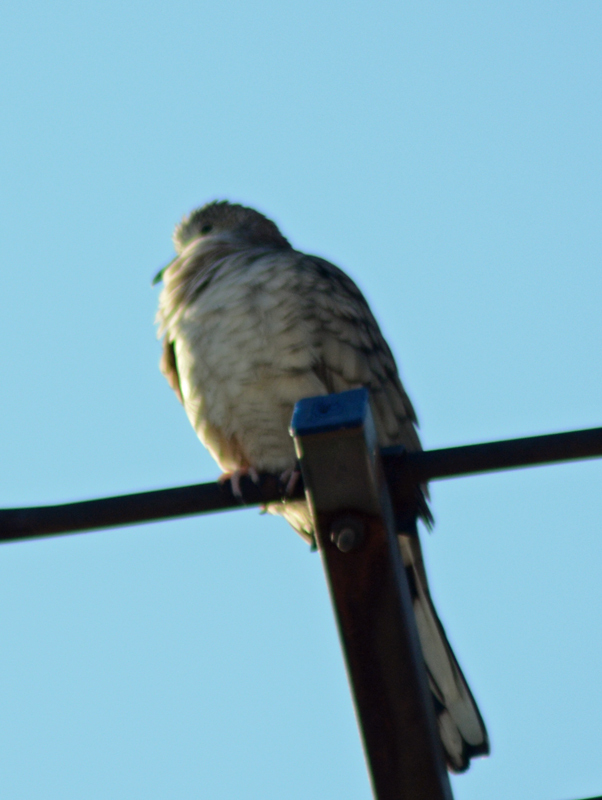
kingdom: Animalia
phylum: Chordata
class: Aves
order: Columbiformes
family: Columbidae
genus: Columbina
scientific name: Columbina inca
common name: Inca dove
